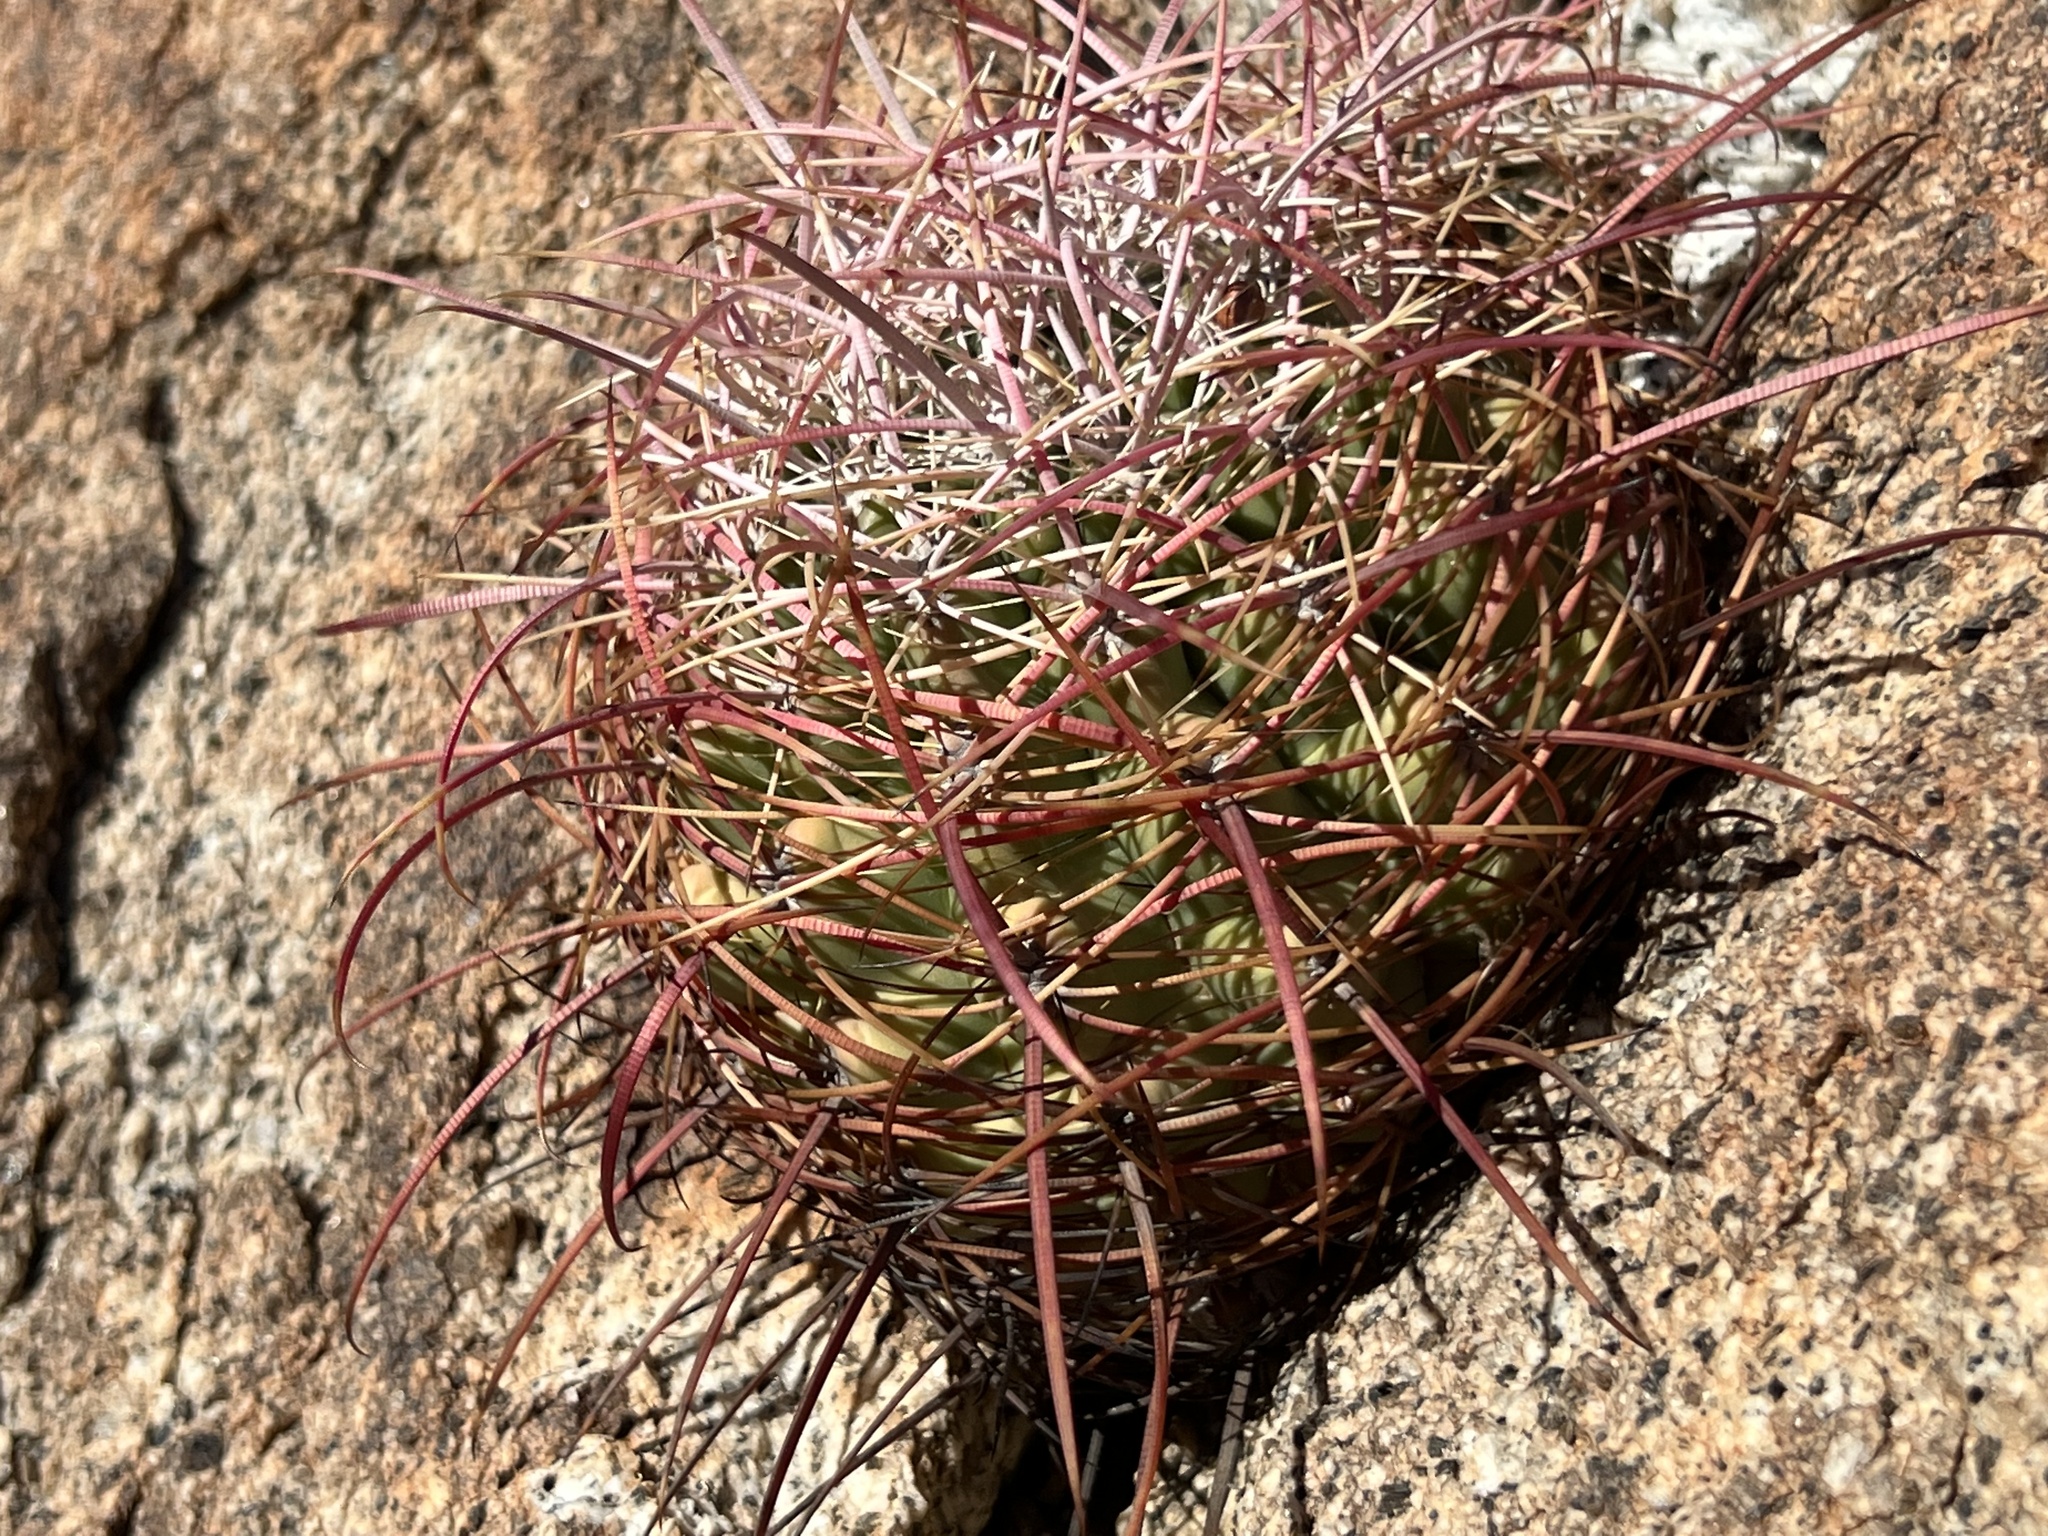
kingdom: Plantae
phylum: Tracheophyta
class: Magnoliopsida
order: Caryophyllales
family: Cactaceae
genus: Ferocactus
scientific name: Ferocactus cylindraceus
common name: California barrel cactus
